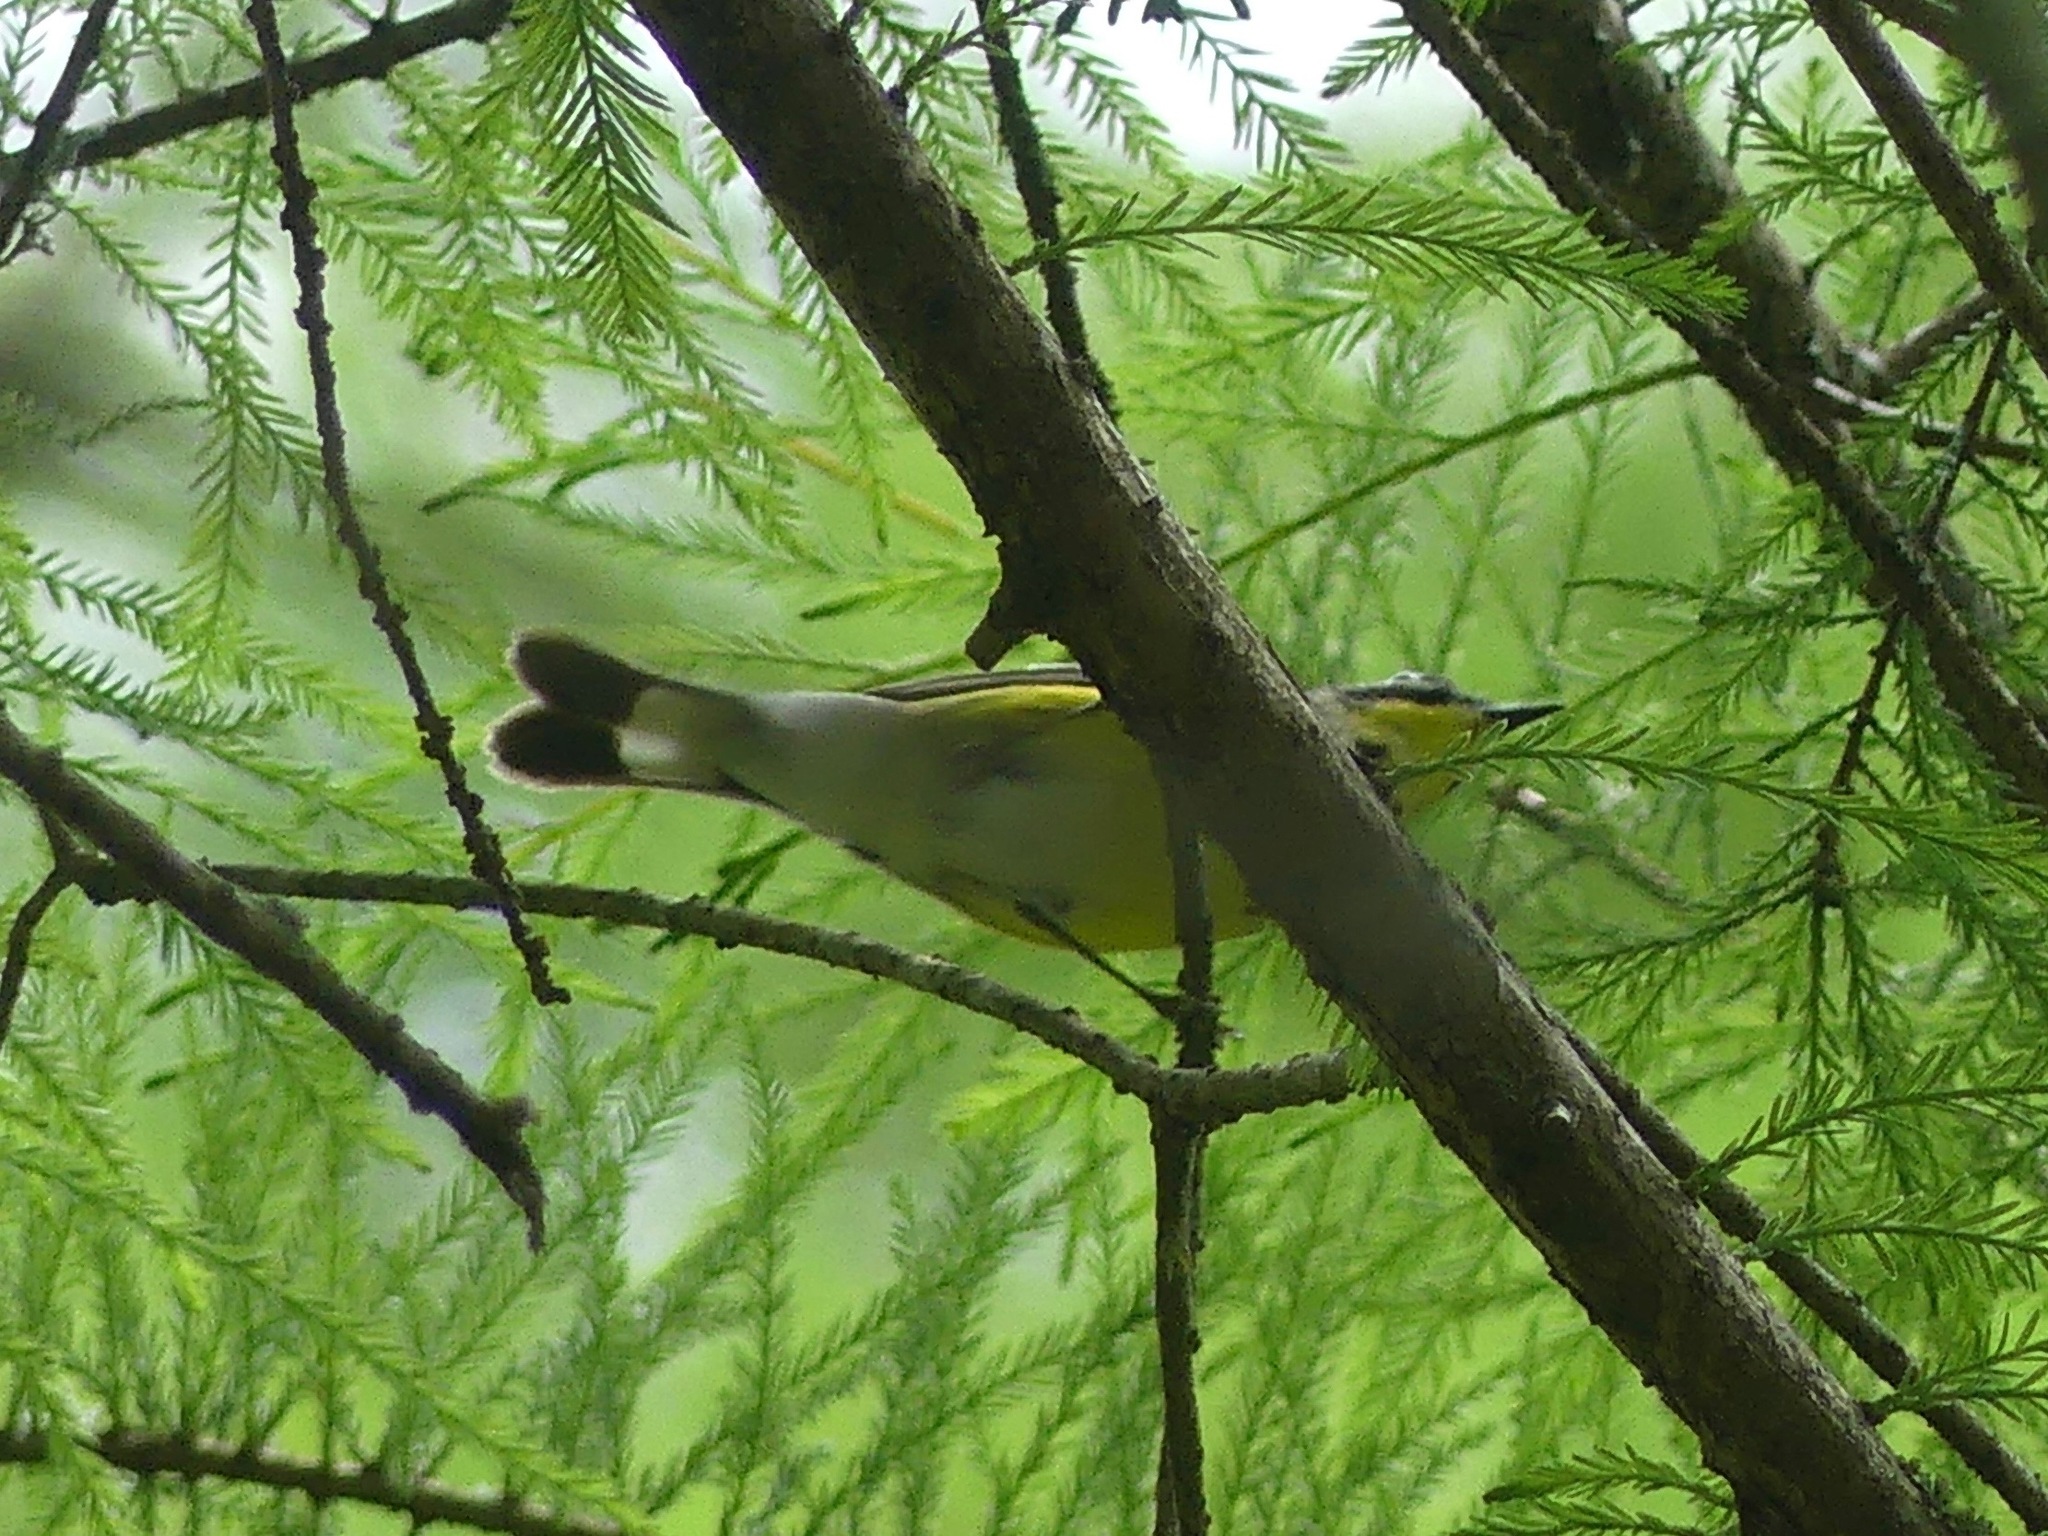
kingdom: Animalia
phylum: Chordata
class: Aves
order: Passeriformes
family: Parulidae
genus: Setophaga
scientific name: Setophaga magnolia
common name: Magnolia warbler
